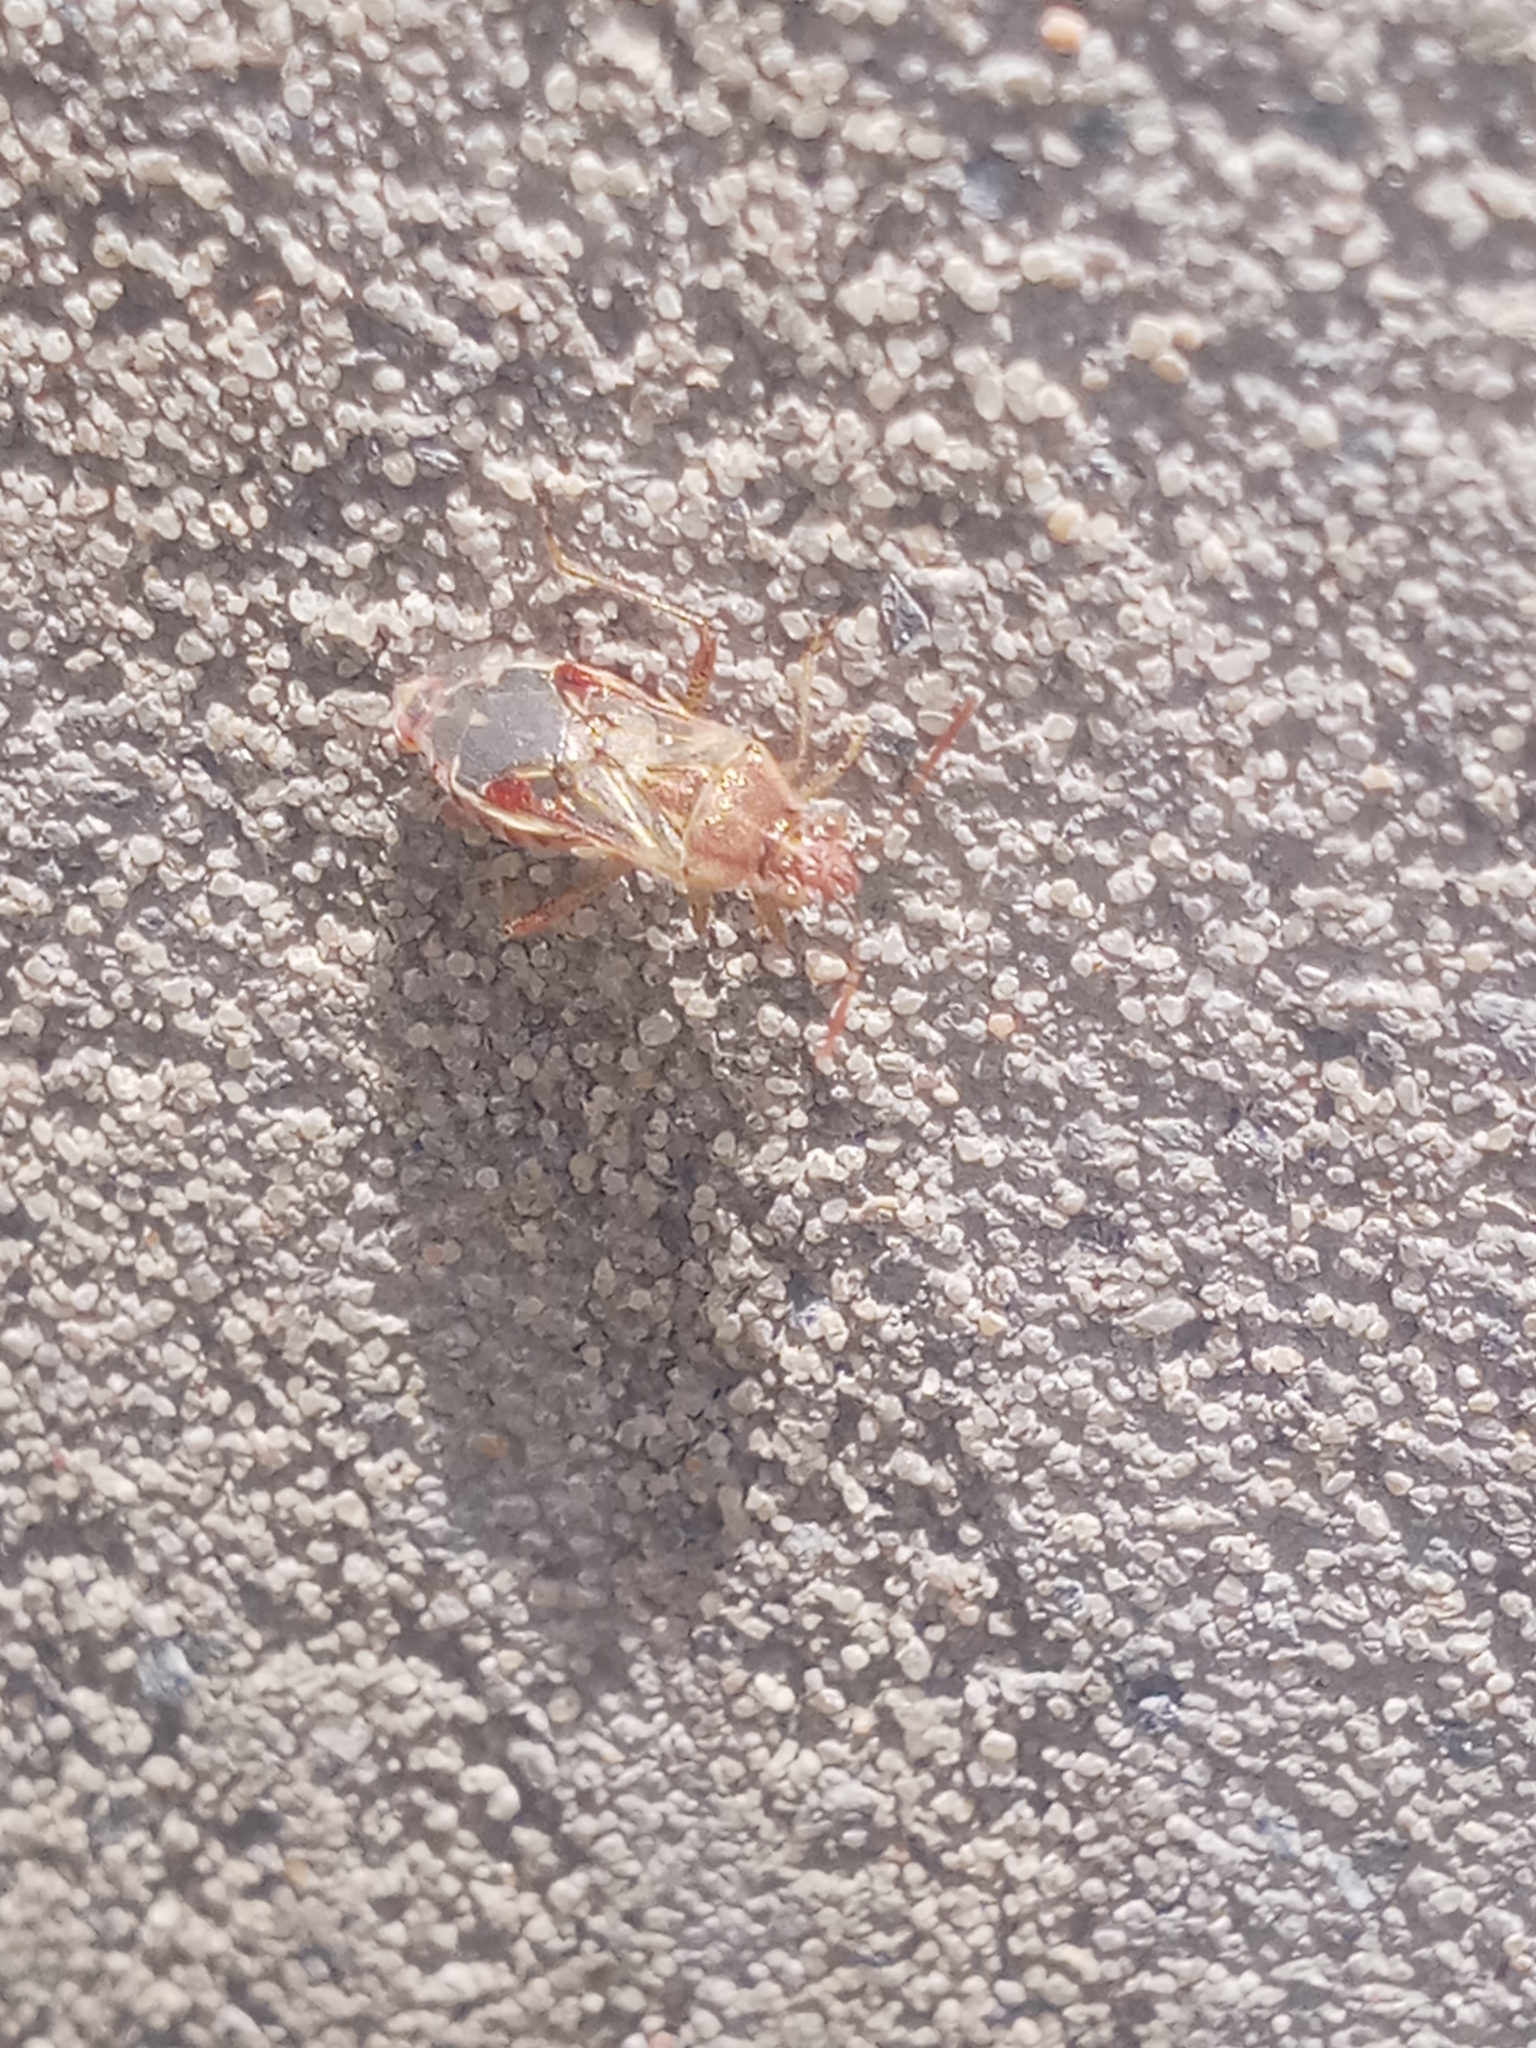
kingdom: Animalia
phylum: Arthropoda
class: Insecta
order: Hemiptera
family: Rhopalidae
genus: Liorhyssus
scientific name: Liorhyssus hyalinus
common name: Scentless plant bug
